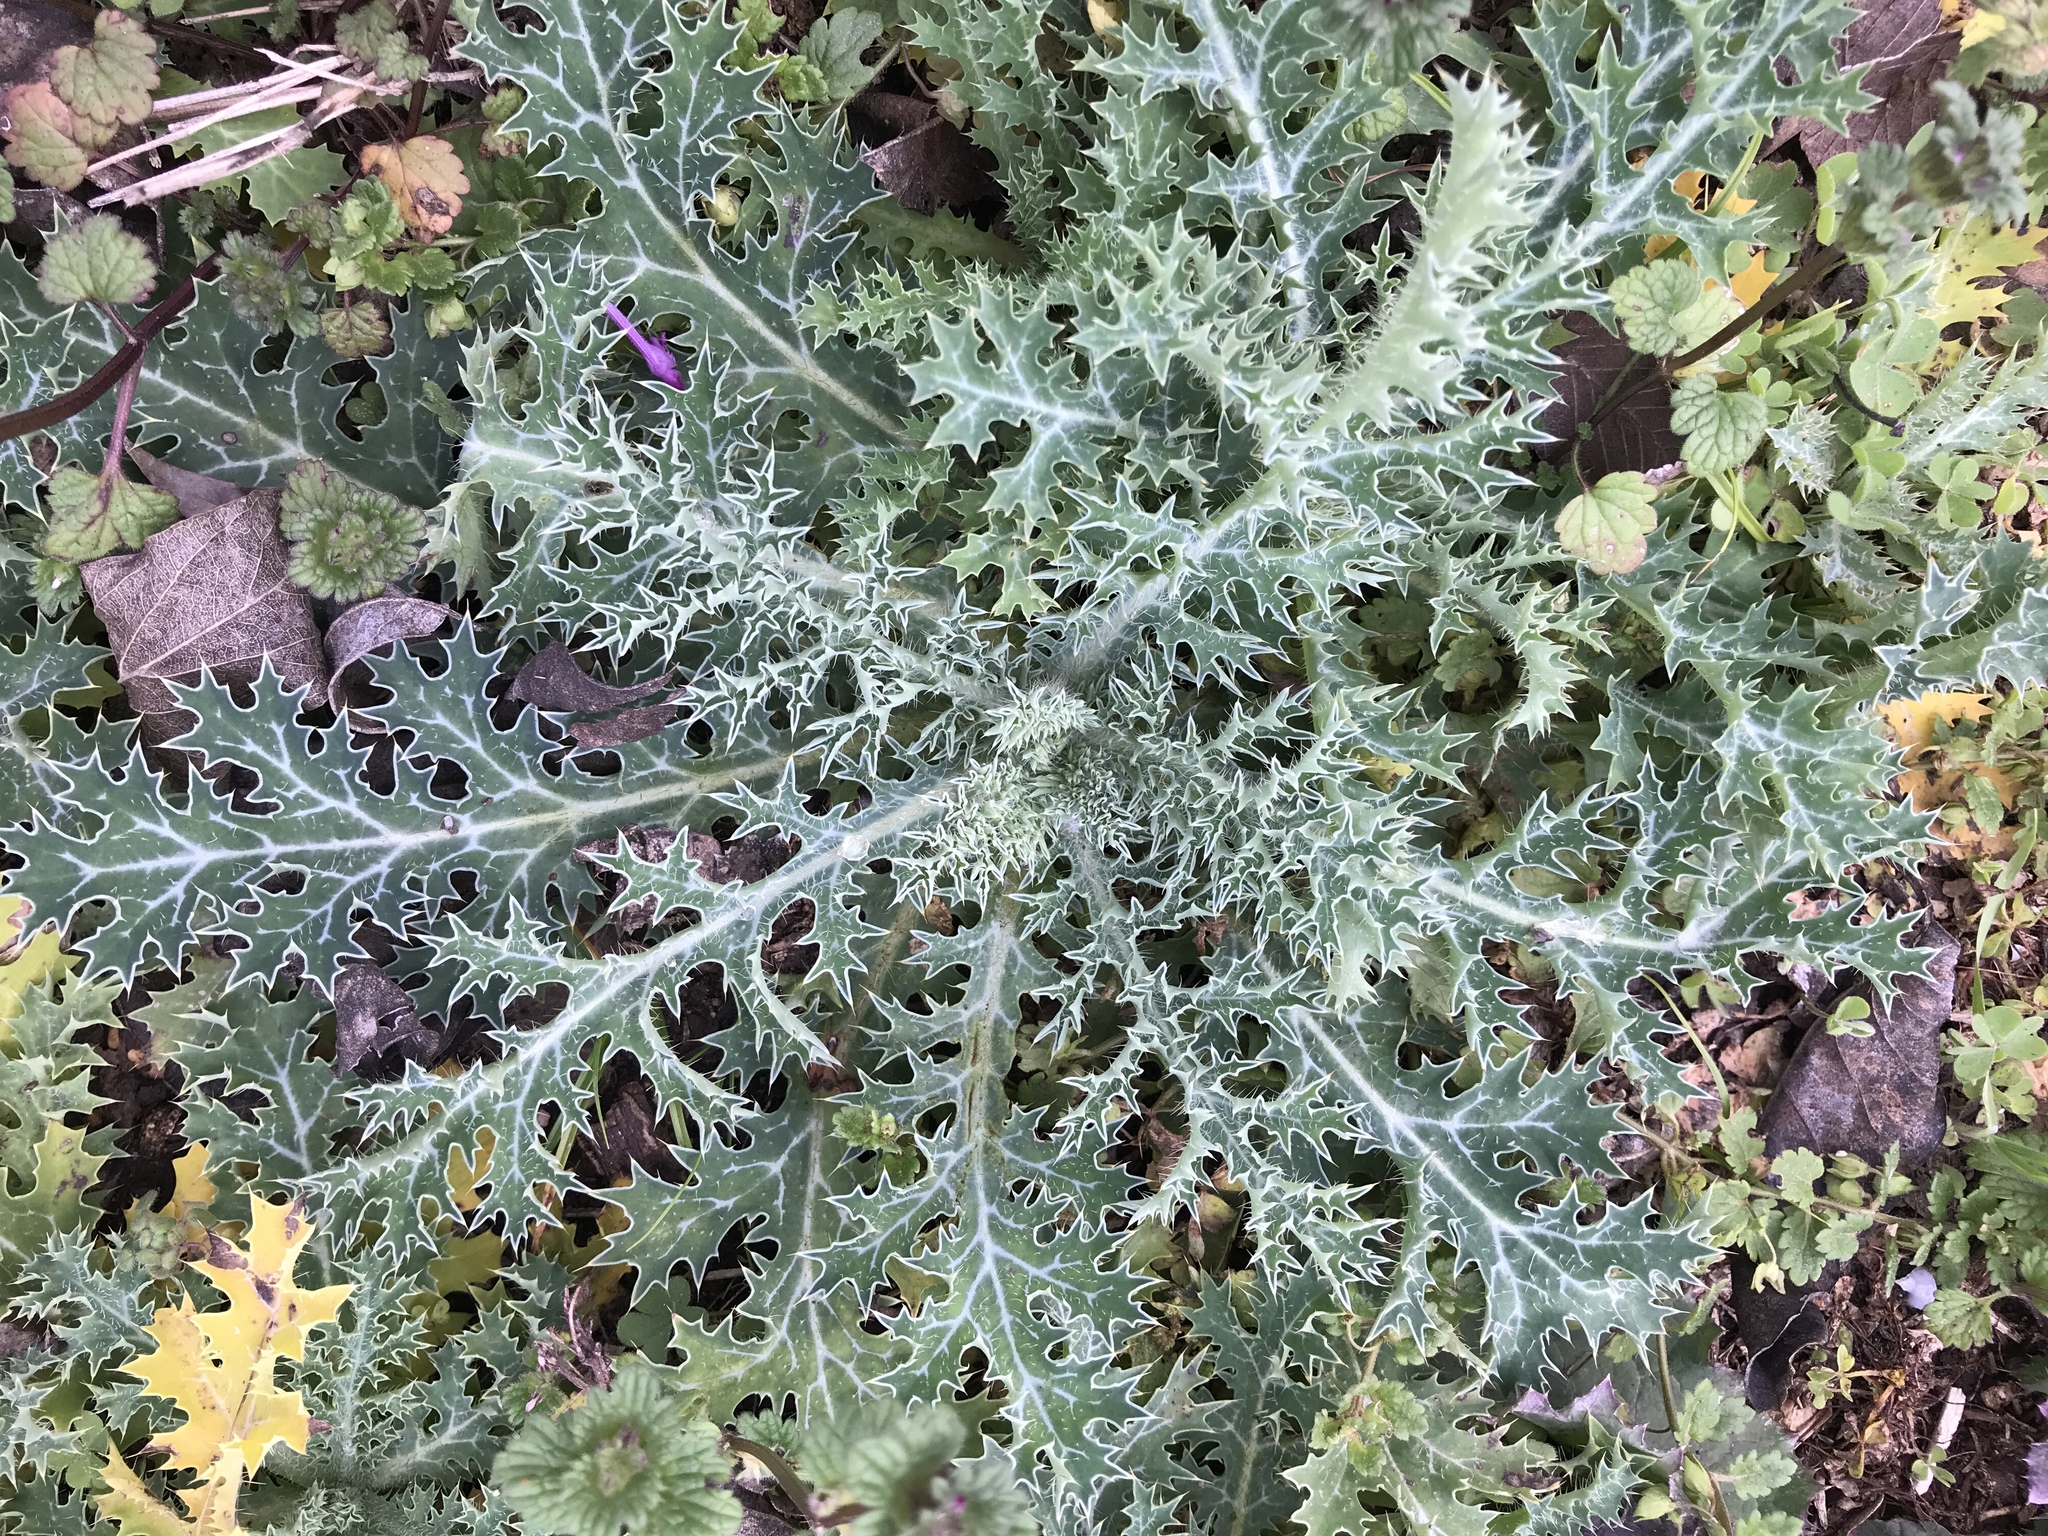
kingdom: Plantae
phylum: Tracheophyta
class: Magnoliopsida
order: Ranunculales
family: Papaveraceae
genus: Argemone
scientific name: Argemone albiflora
